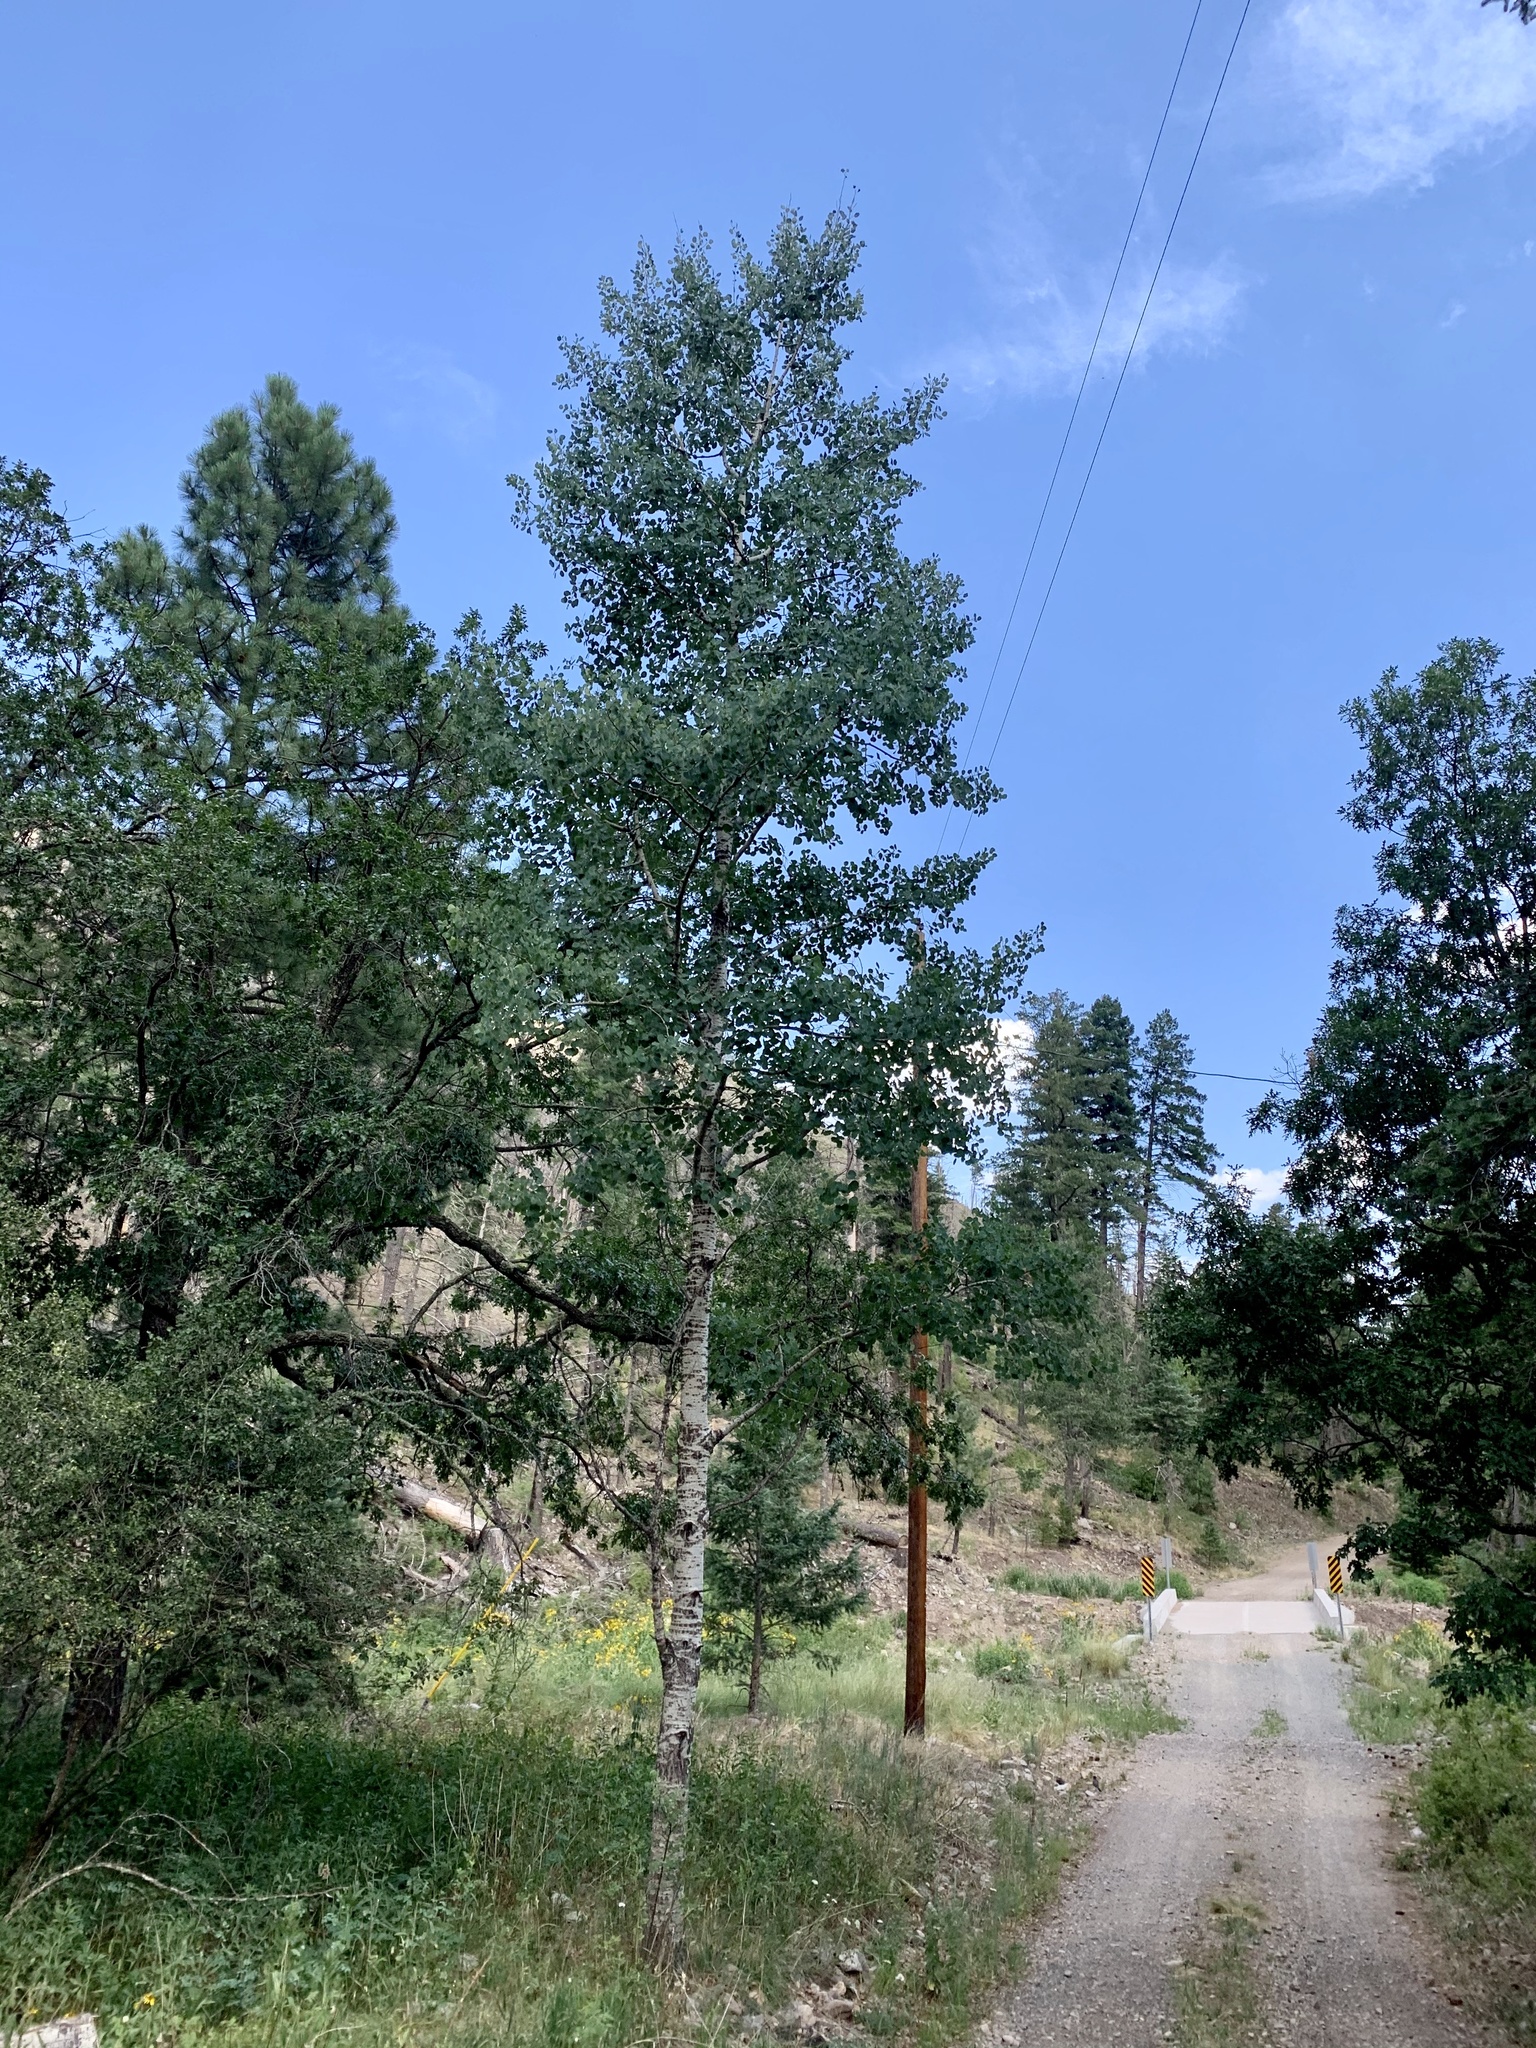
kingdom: Plantae
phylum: Tracheophyta
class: Magnoliopsida
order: Malpighiales
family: Salicaceae
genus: Populus
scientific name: Populus tremuloides
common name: Quaking aspen
